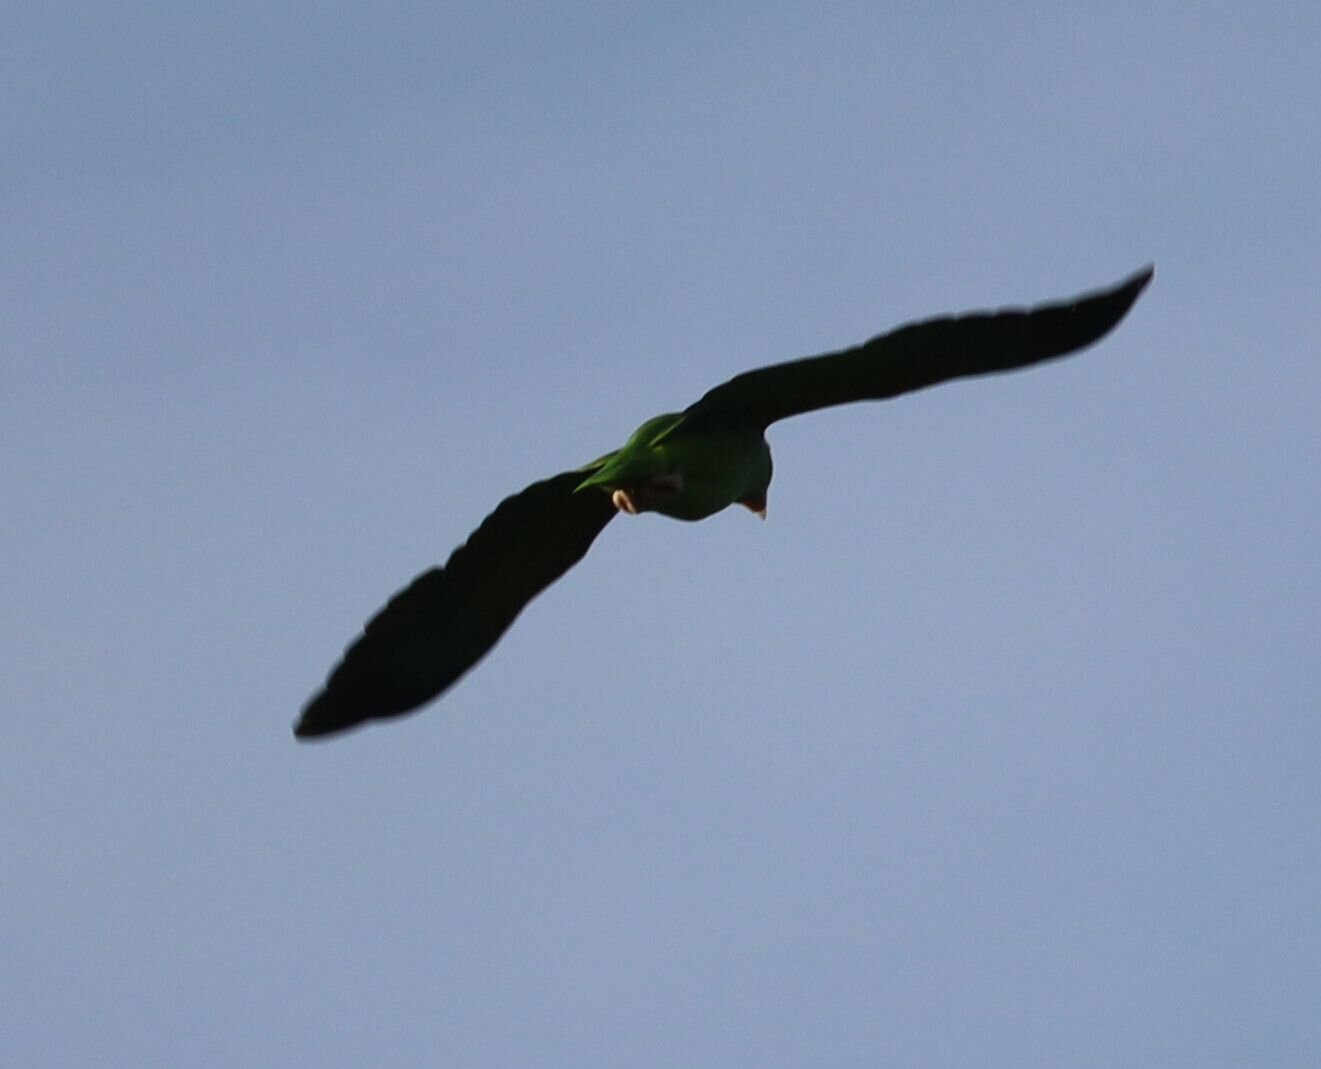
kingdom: Animalia
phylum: Chordata
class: Aves
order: Psittaciformes
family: Psittacidae
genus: Amazona
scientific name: Amazona
